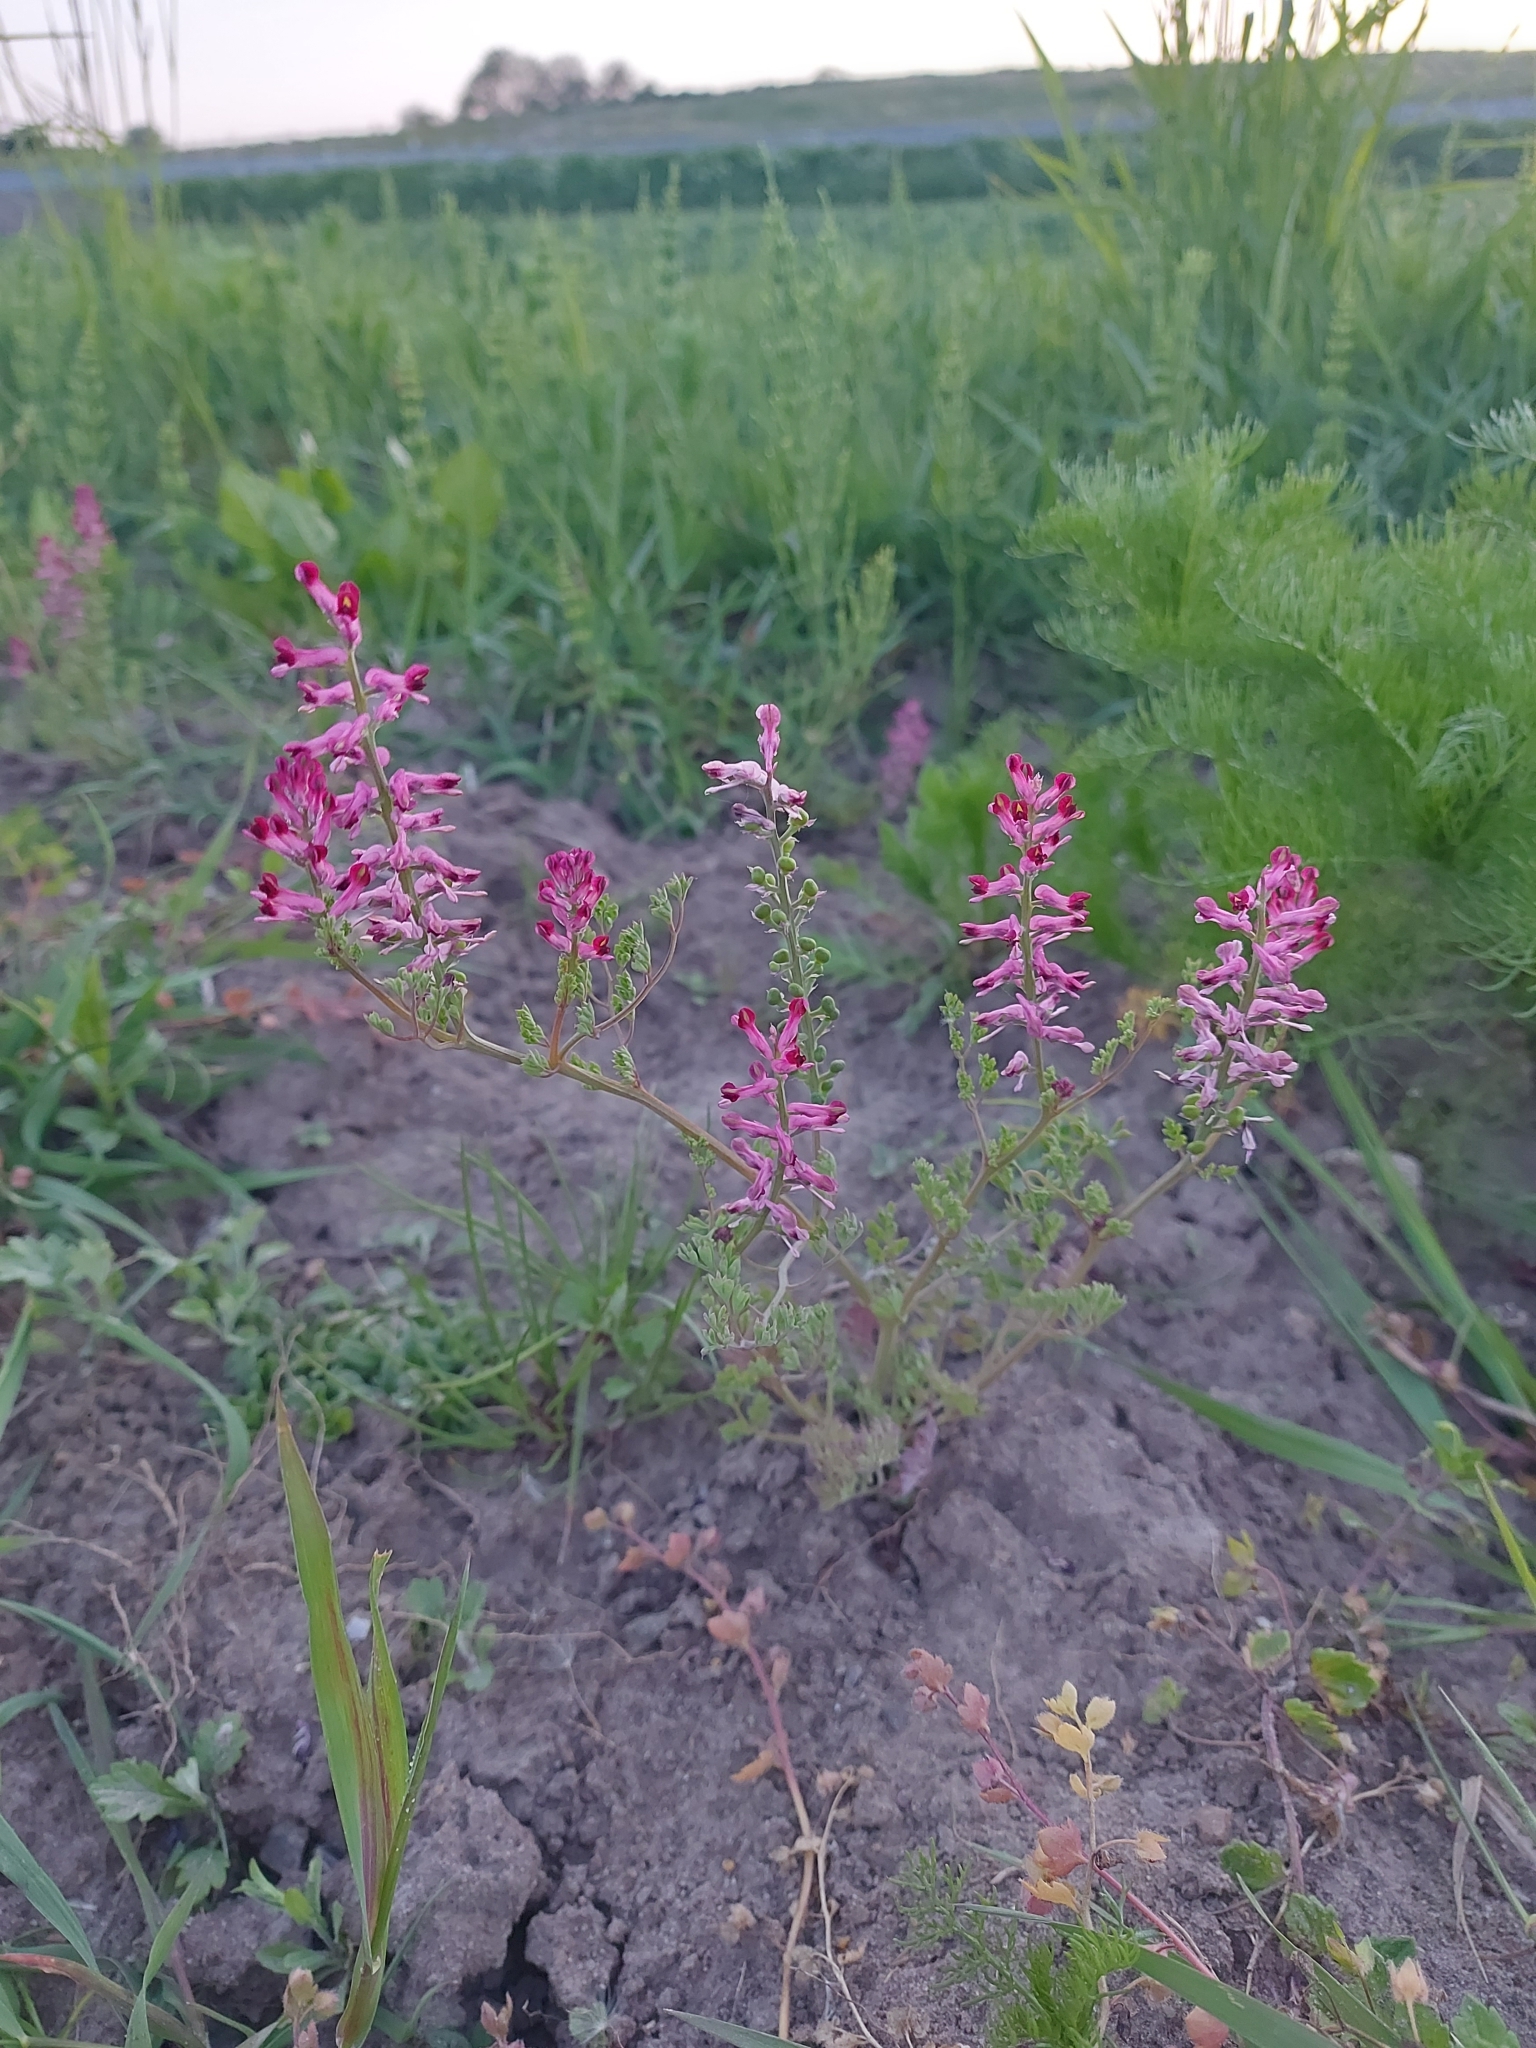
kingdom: Plantae
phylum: Tracheophyta
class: Magnoliopsida
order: Ranunculales
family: Papaveraceae
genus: Fumaria
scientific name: Fumaria officinalis
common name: Common fumitory
